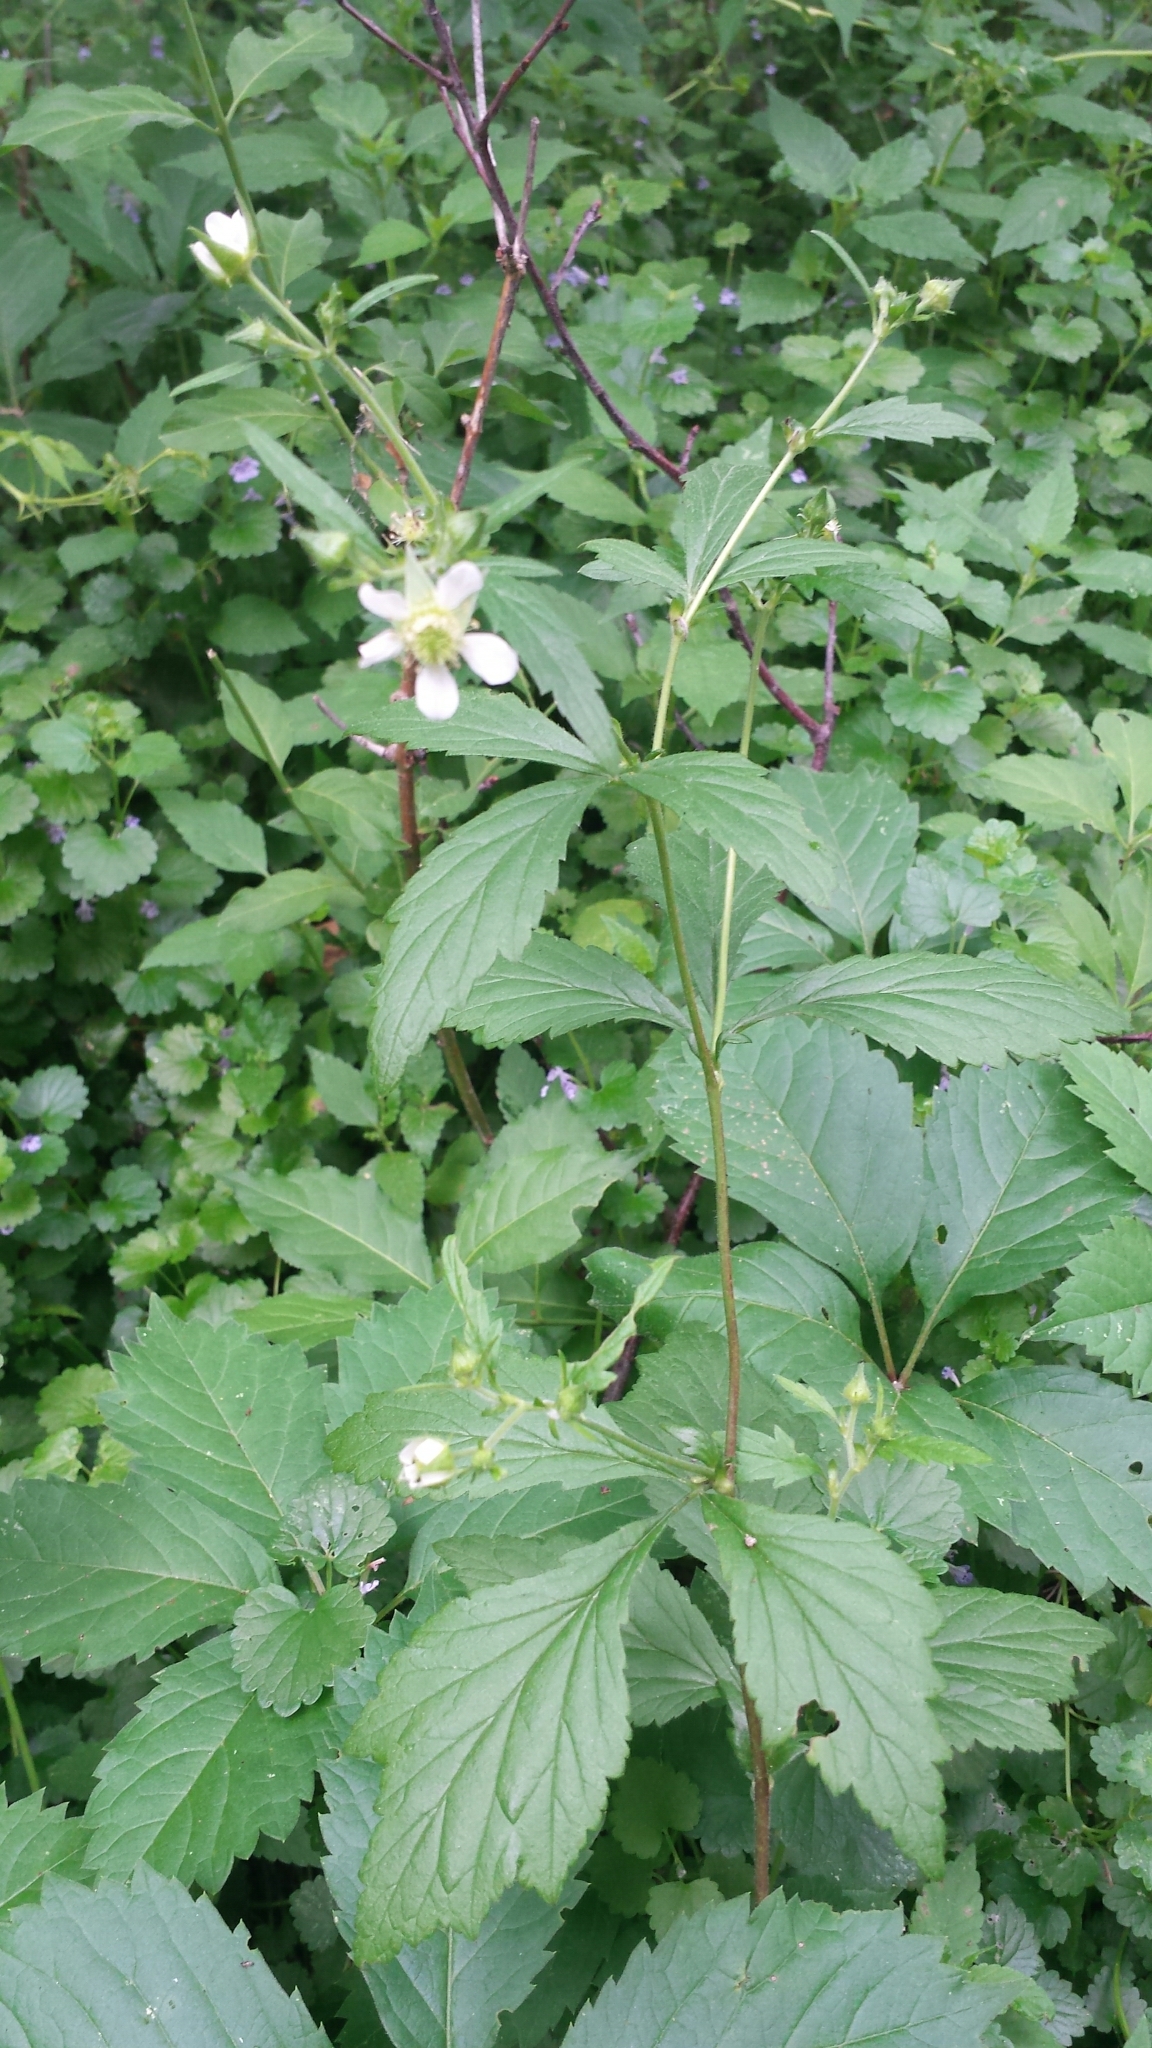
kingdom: Plantae
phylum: Tracheophyta
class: Magnoliopsida
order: Rosales
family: Rosaceae
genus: Geum
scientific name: Geum canadense
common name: White avens
